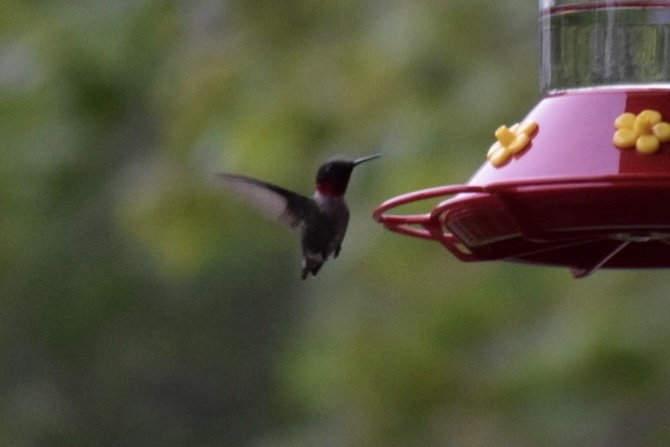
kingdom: Animalia
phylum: Chordata
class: Aves
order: Apodiformes
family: Trochilidae
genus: Archilochus
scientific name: Archilochus colubris
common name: Ruby-throated hummingbird
